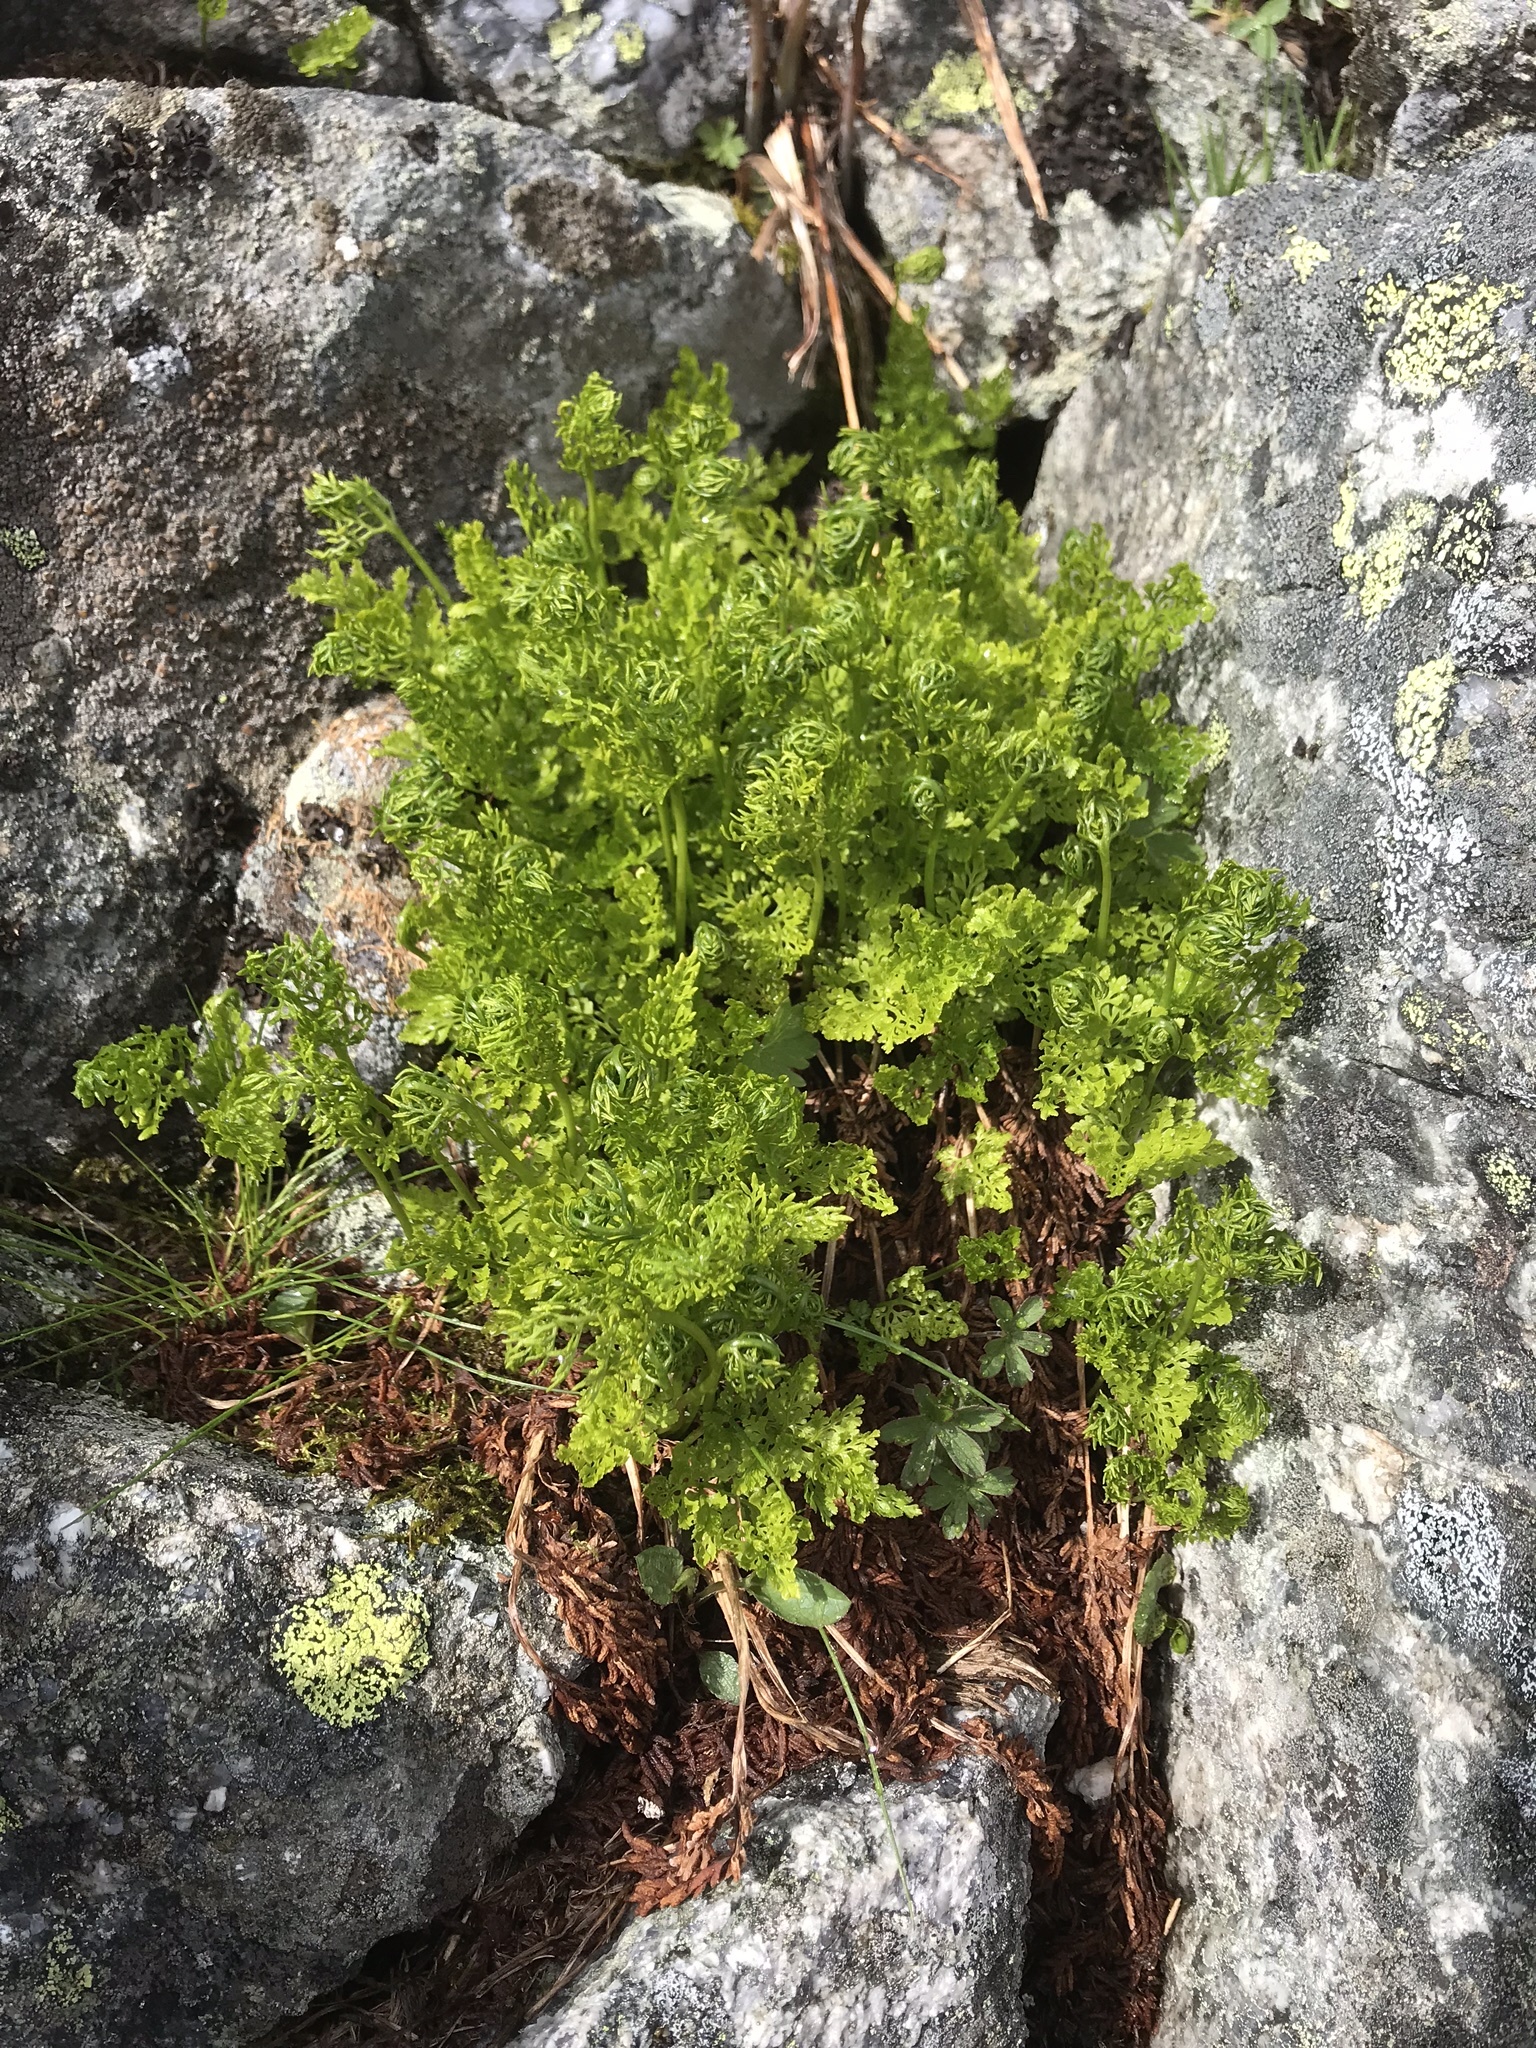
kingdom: Plantae
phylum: Tracheophyta
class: Polypodiopsida
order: Polypodiales
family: Pteridaceae
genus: Cryptogramma
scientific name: Cryptogramma crispa
